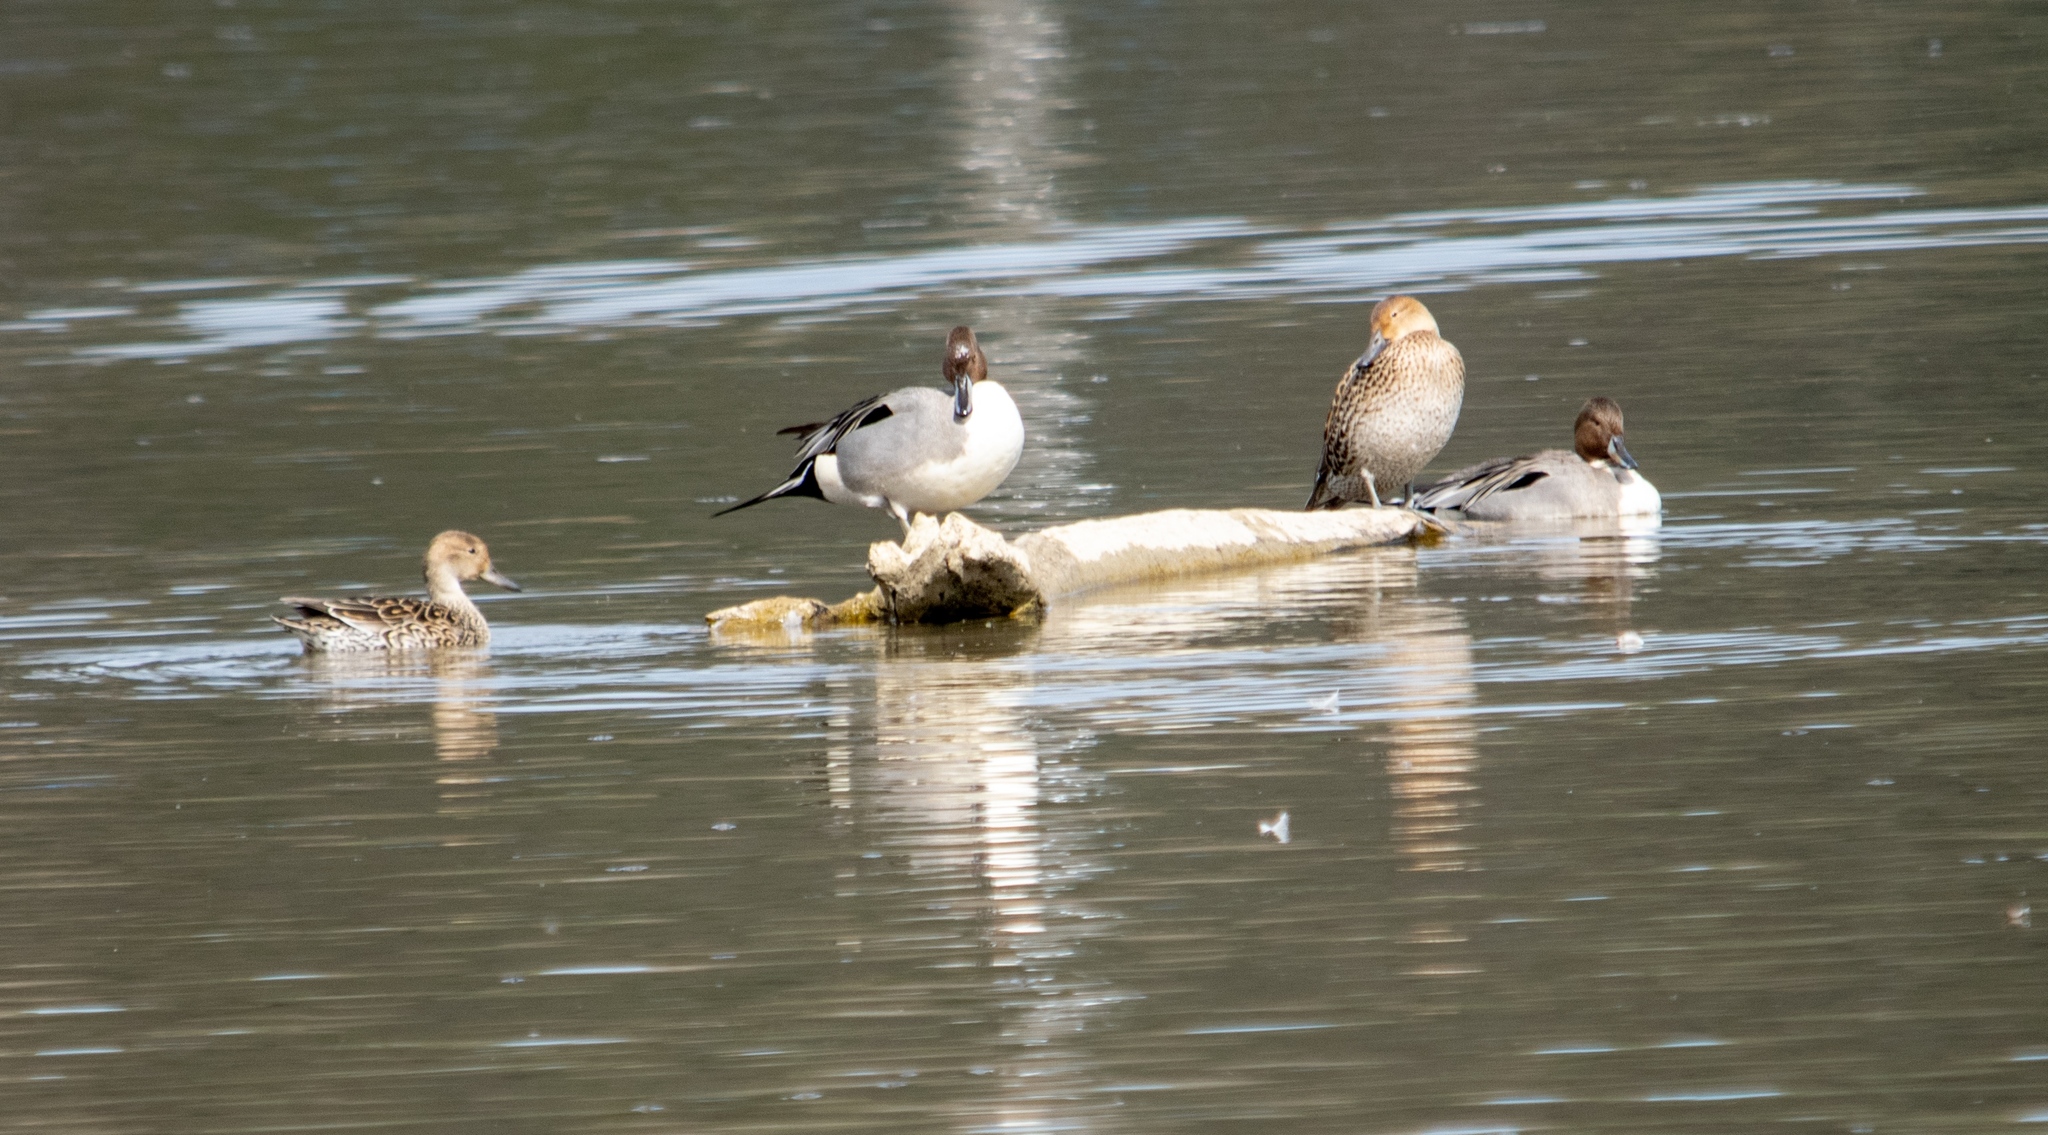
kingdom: Animalia
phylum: Chordata
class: Aves
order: Anseriformes
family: Anatidae
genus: Anas
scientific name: Anas acuta
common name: Northern pintail
